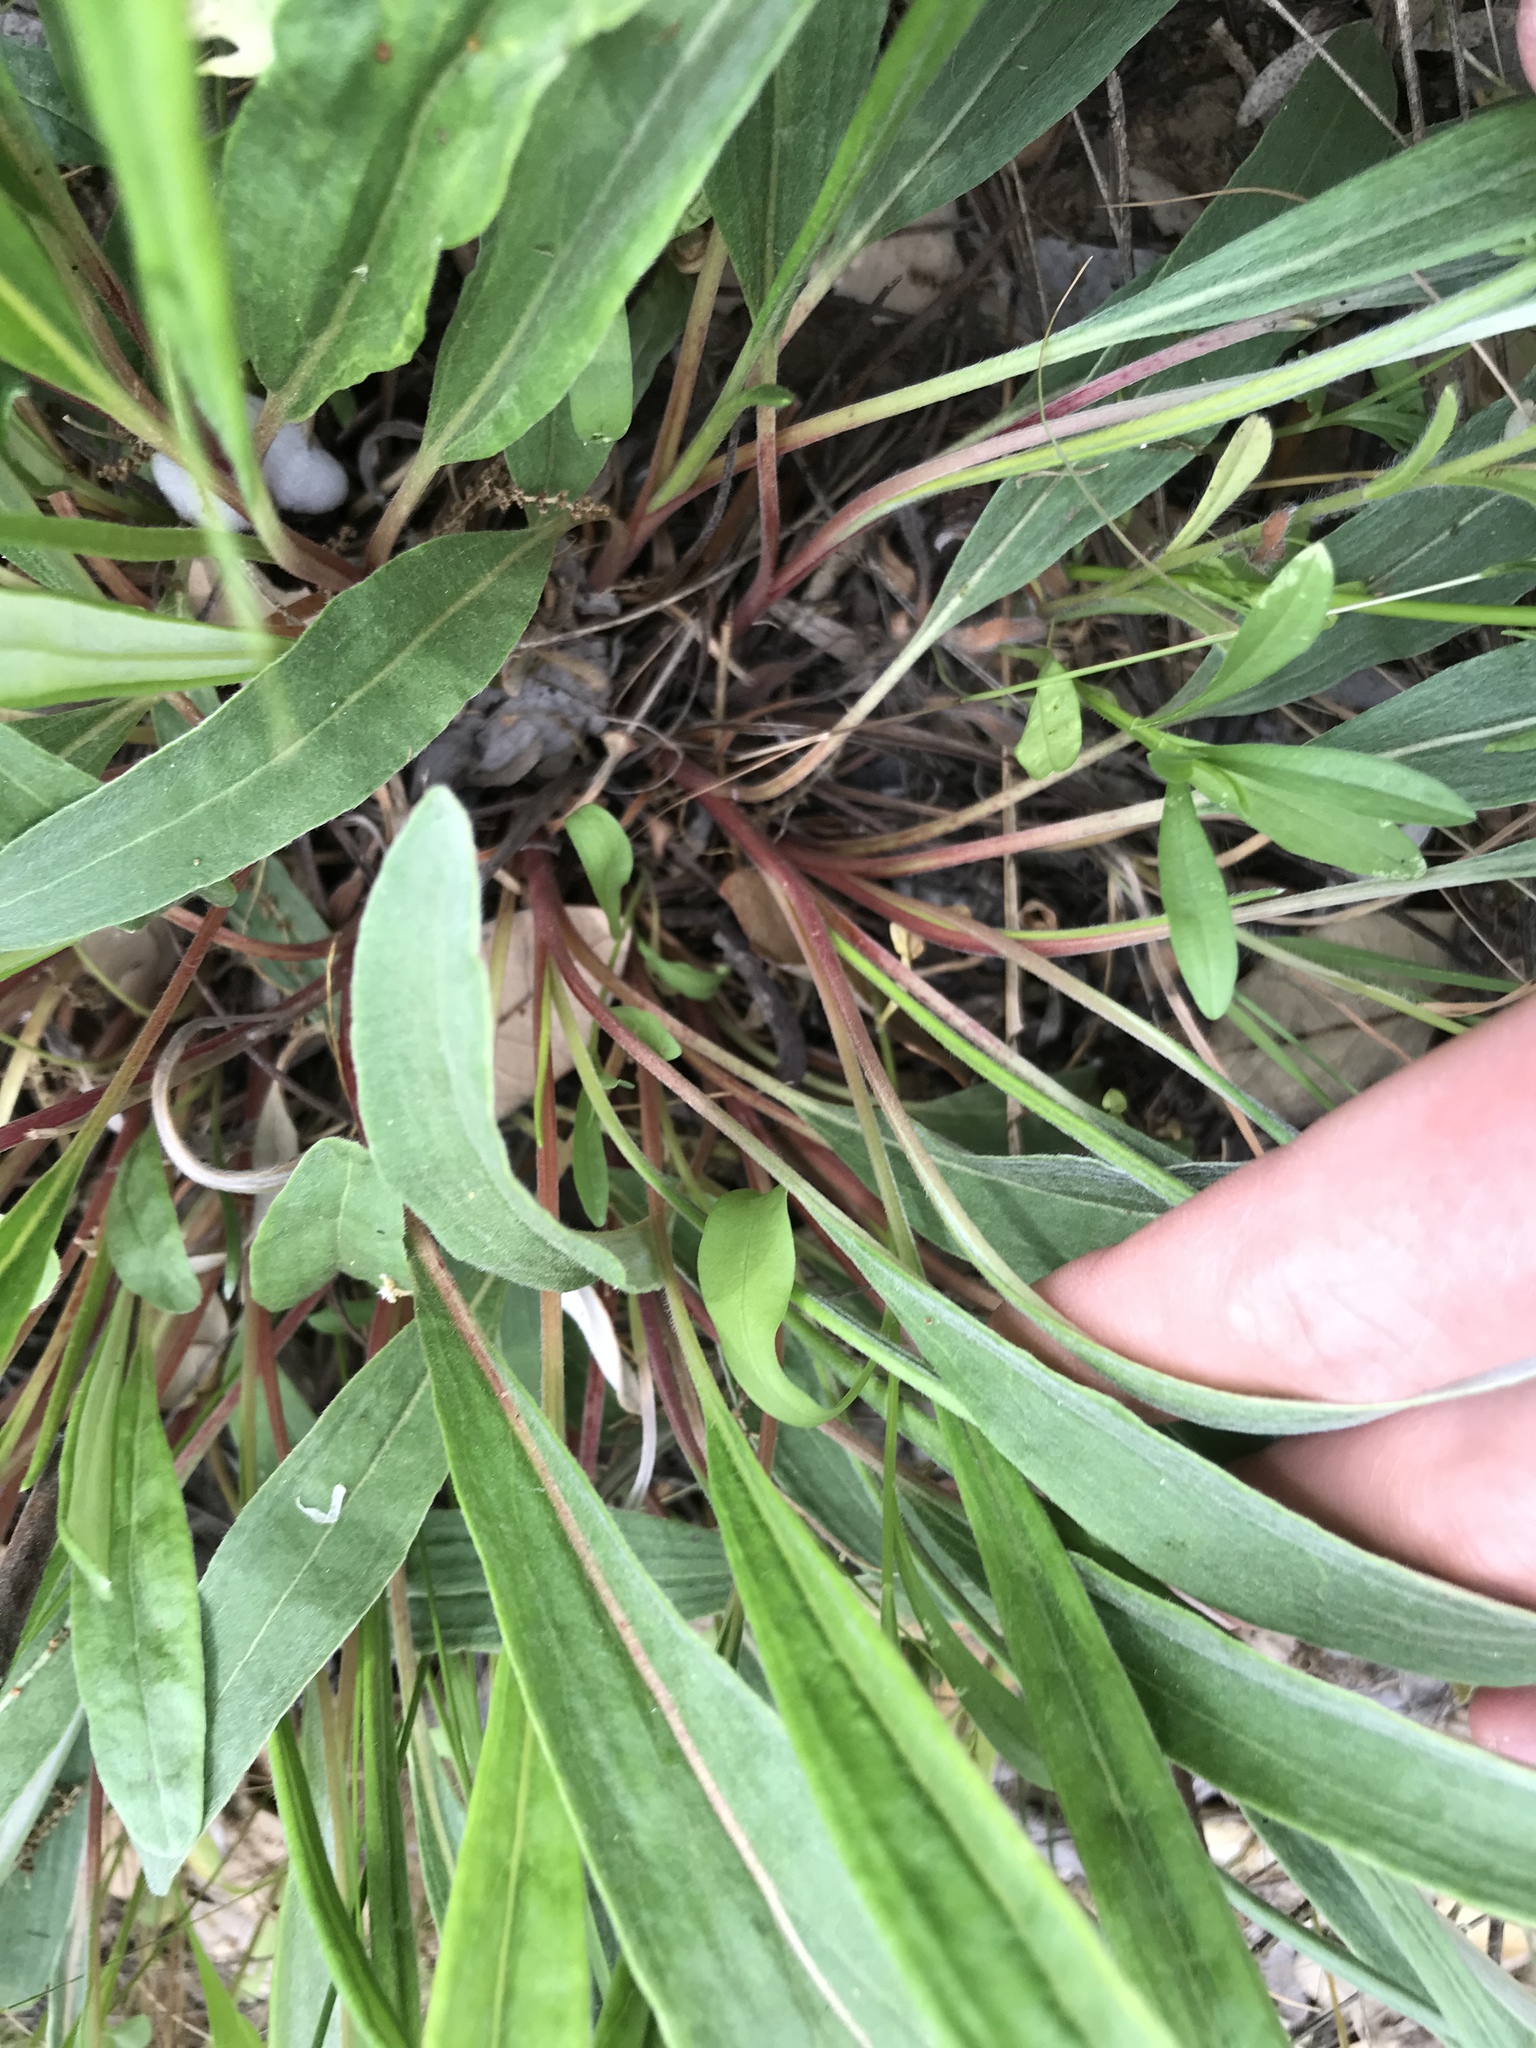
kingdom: Plantae
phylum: Tracheophyta
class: Magnoliopsida
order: Caryophyllales
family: Polygonaceae
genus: Eriogonum
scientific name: Eriogonum longifolium
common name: Longleaf wild buckwheat
